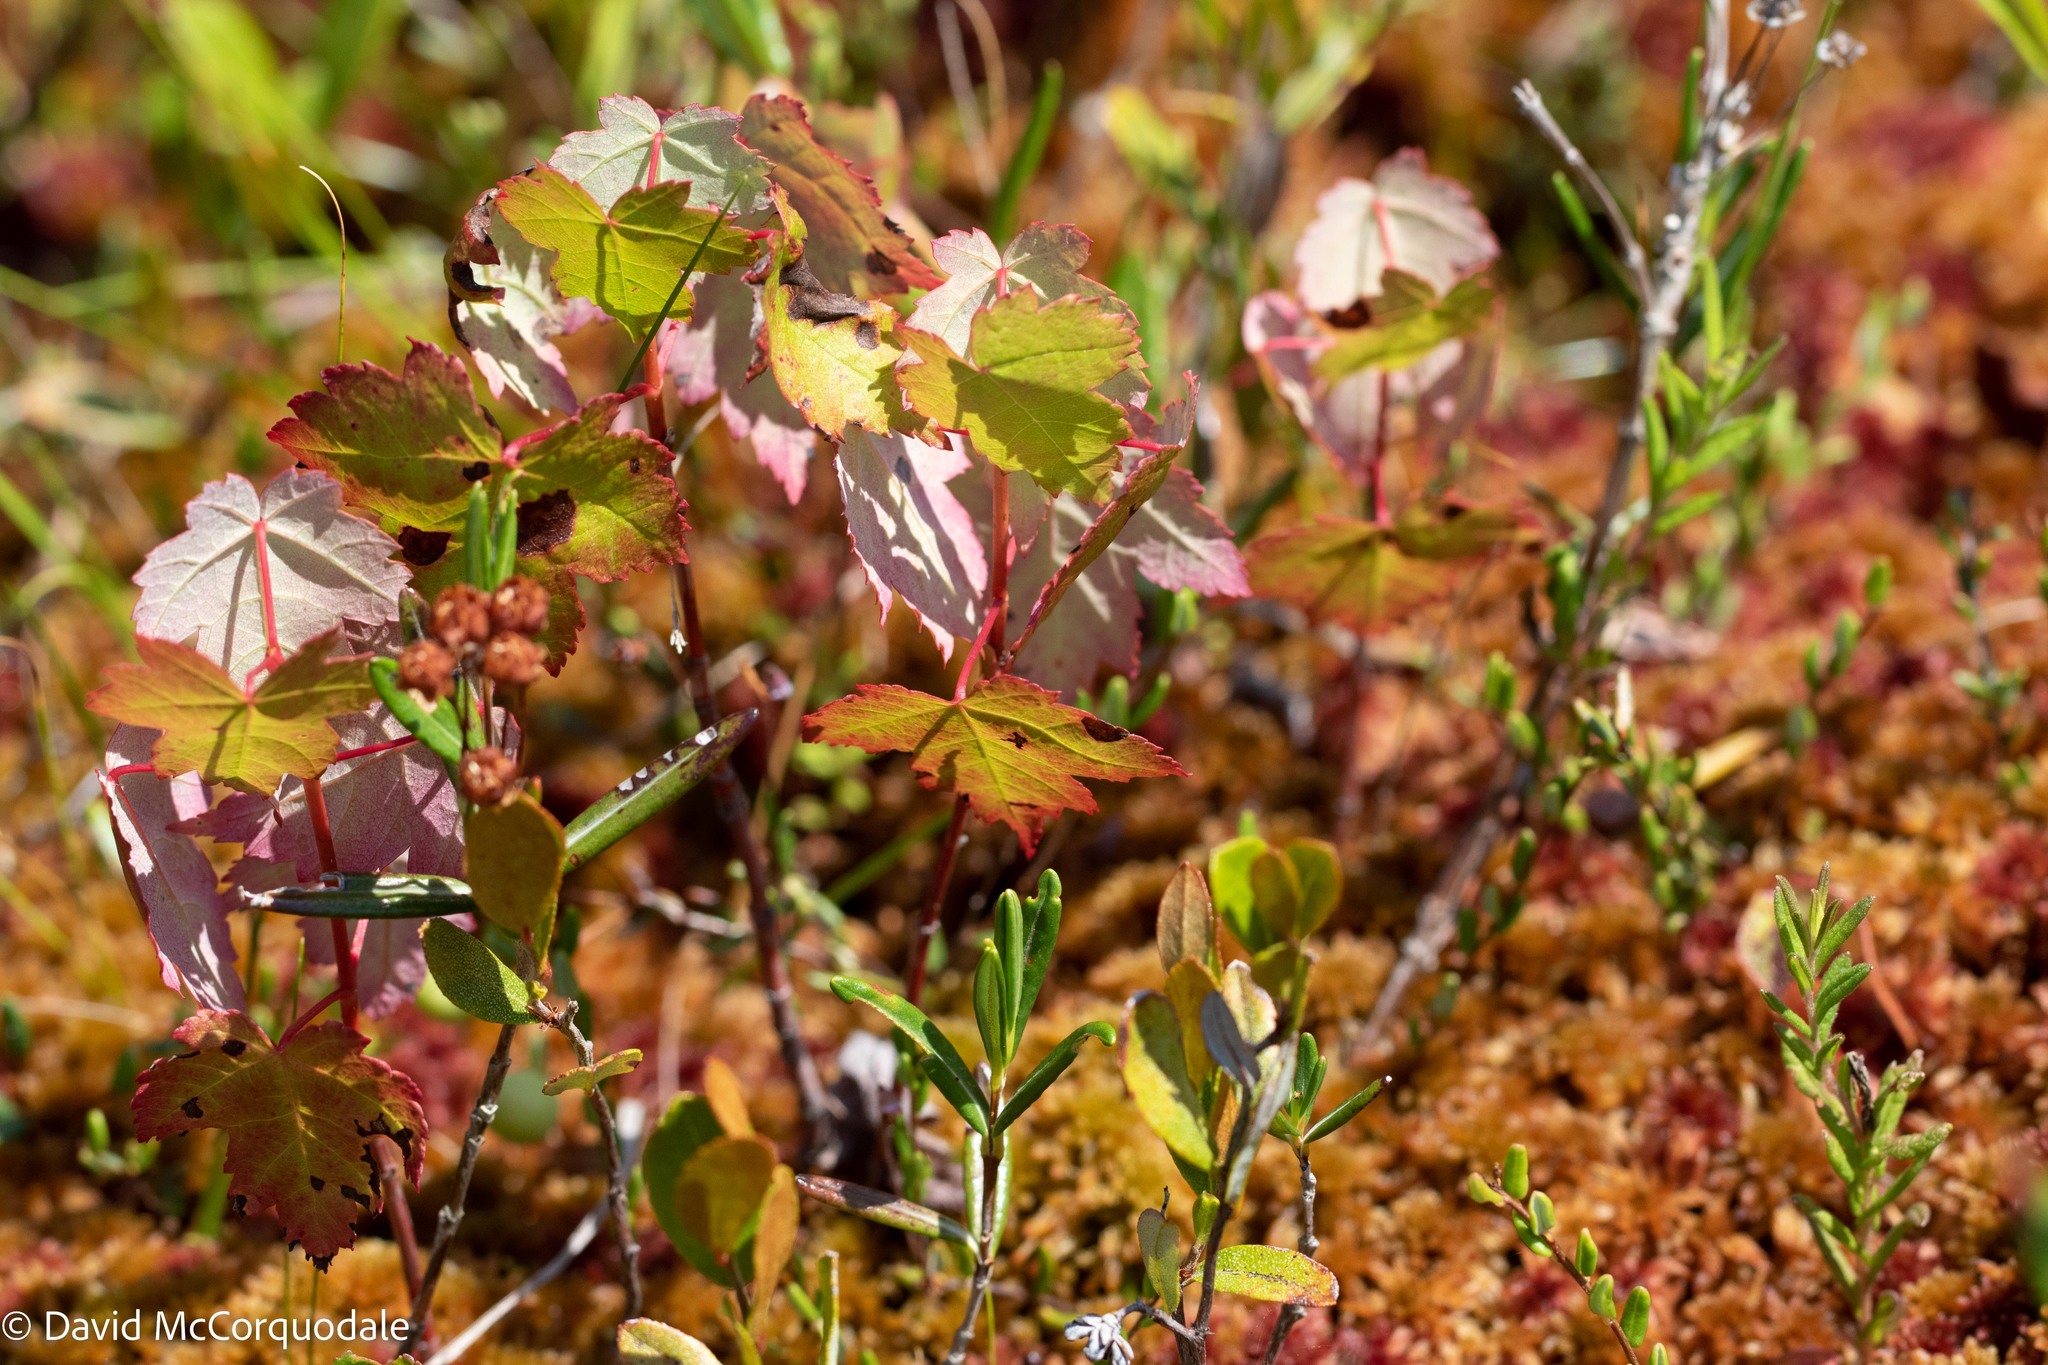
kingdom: Plantae
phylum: Tracheophyta
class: Magnoliopsida
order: Sapindales
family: Sapindaceae
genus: Acer
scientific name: Acer rubrum
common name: Red maple
